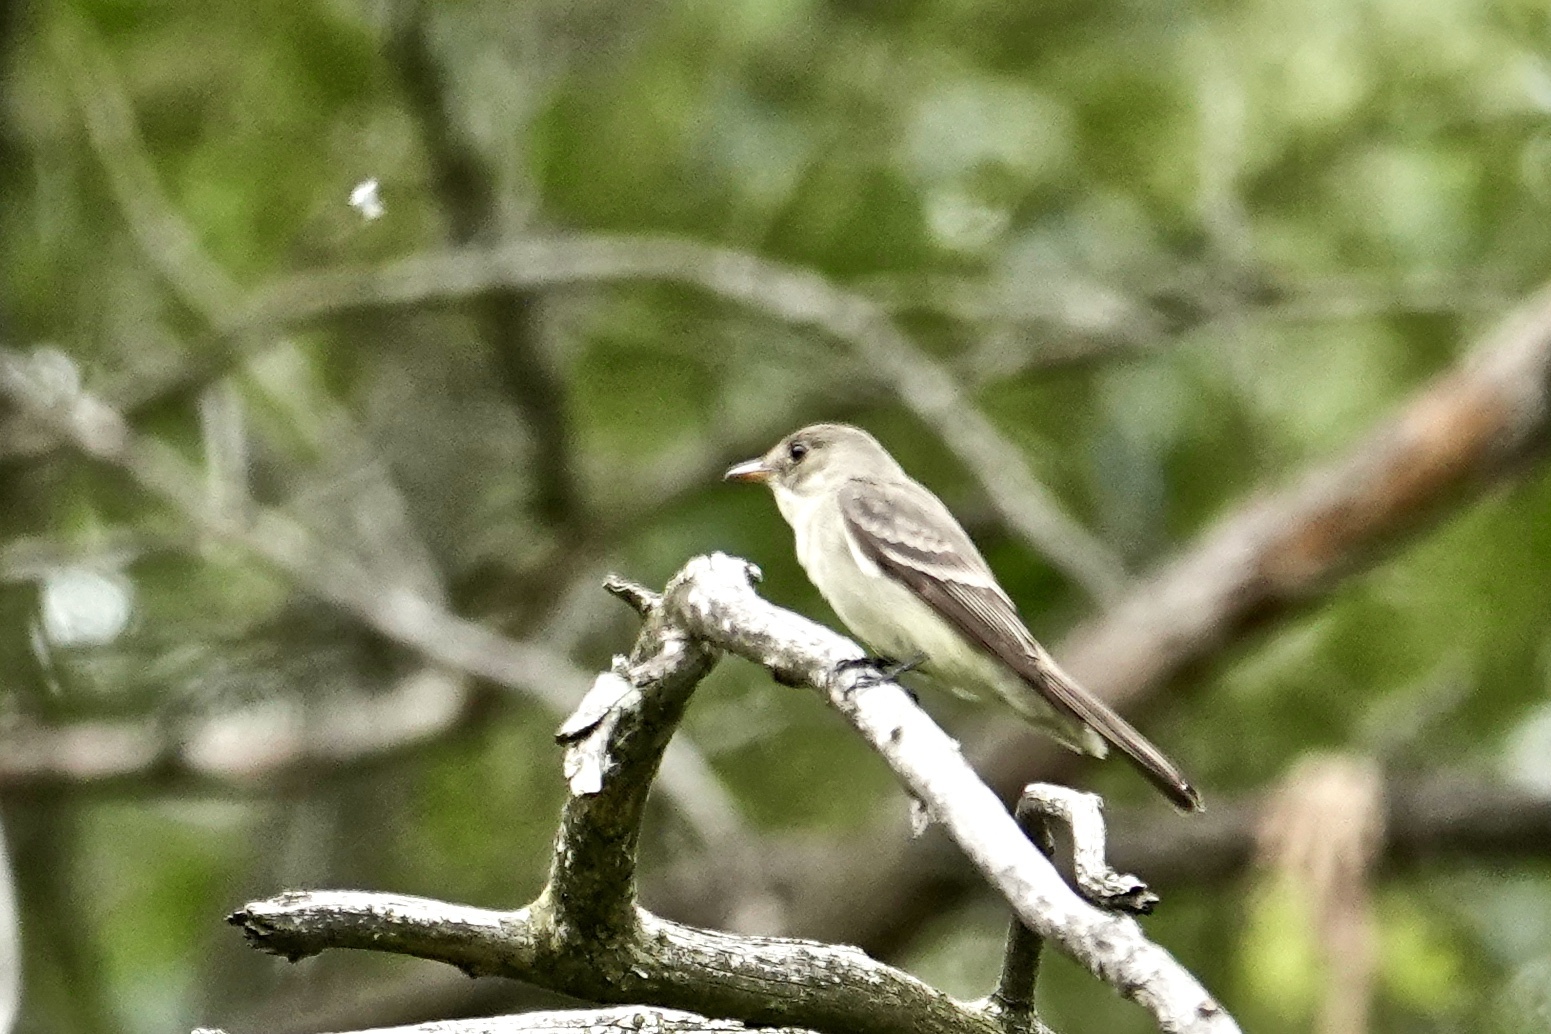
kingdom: Animalia
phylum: Chordata
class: Aves
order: Passeriformes
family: Tyrannidae
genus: Contopus
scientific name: Contopus virens
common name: Eastern wood-pewee
